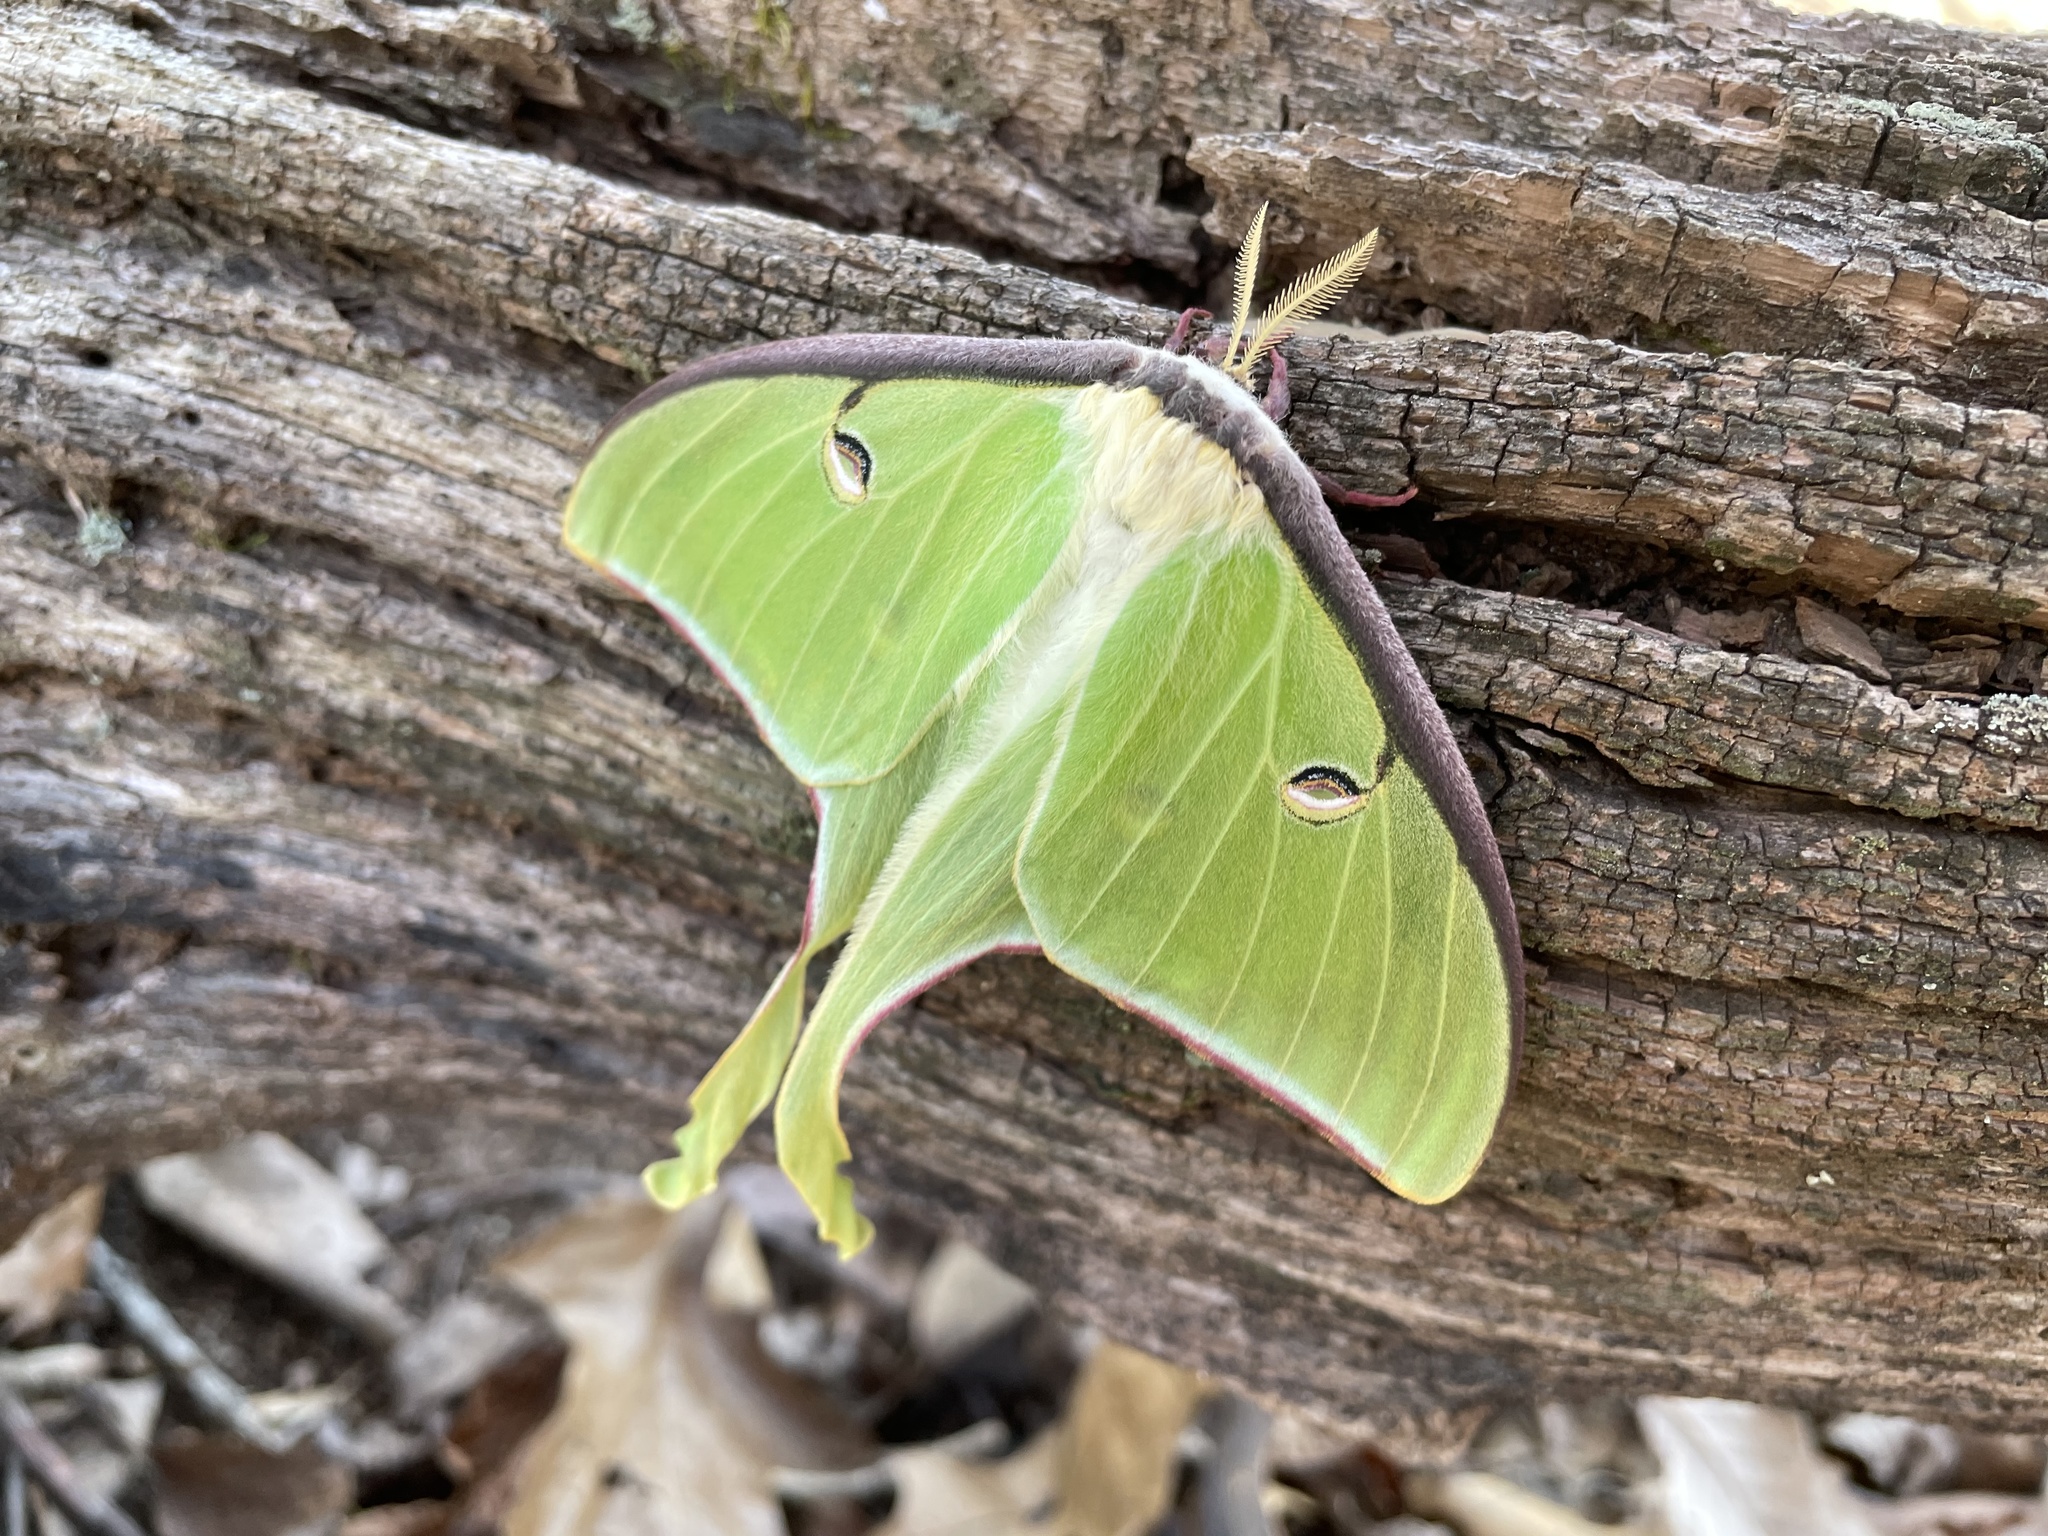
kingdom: Animalia
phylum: Arthropoda
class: Insecta
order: Lepidoptera
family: Saturniidae
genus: Actias
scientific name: Actias luna
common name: Luna moth
